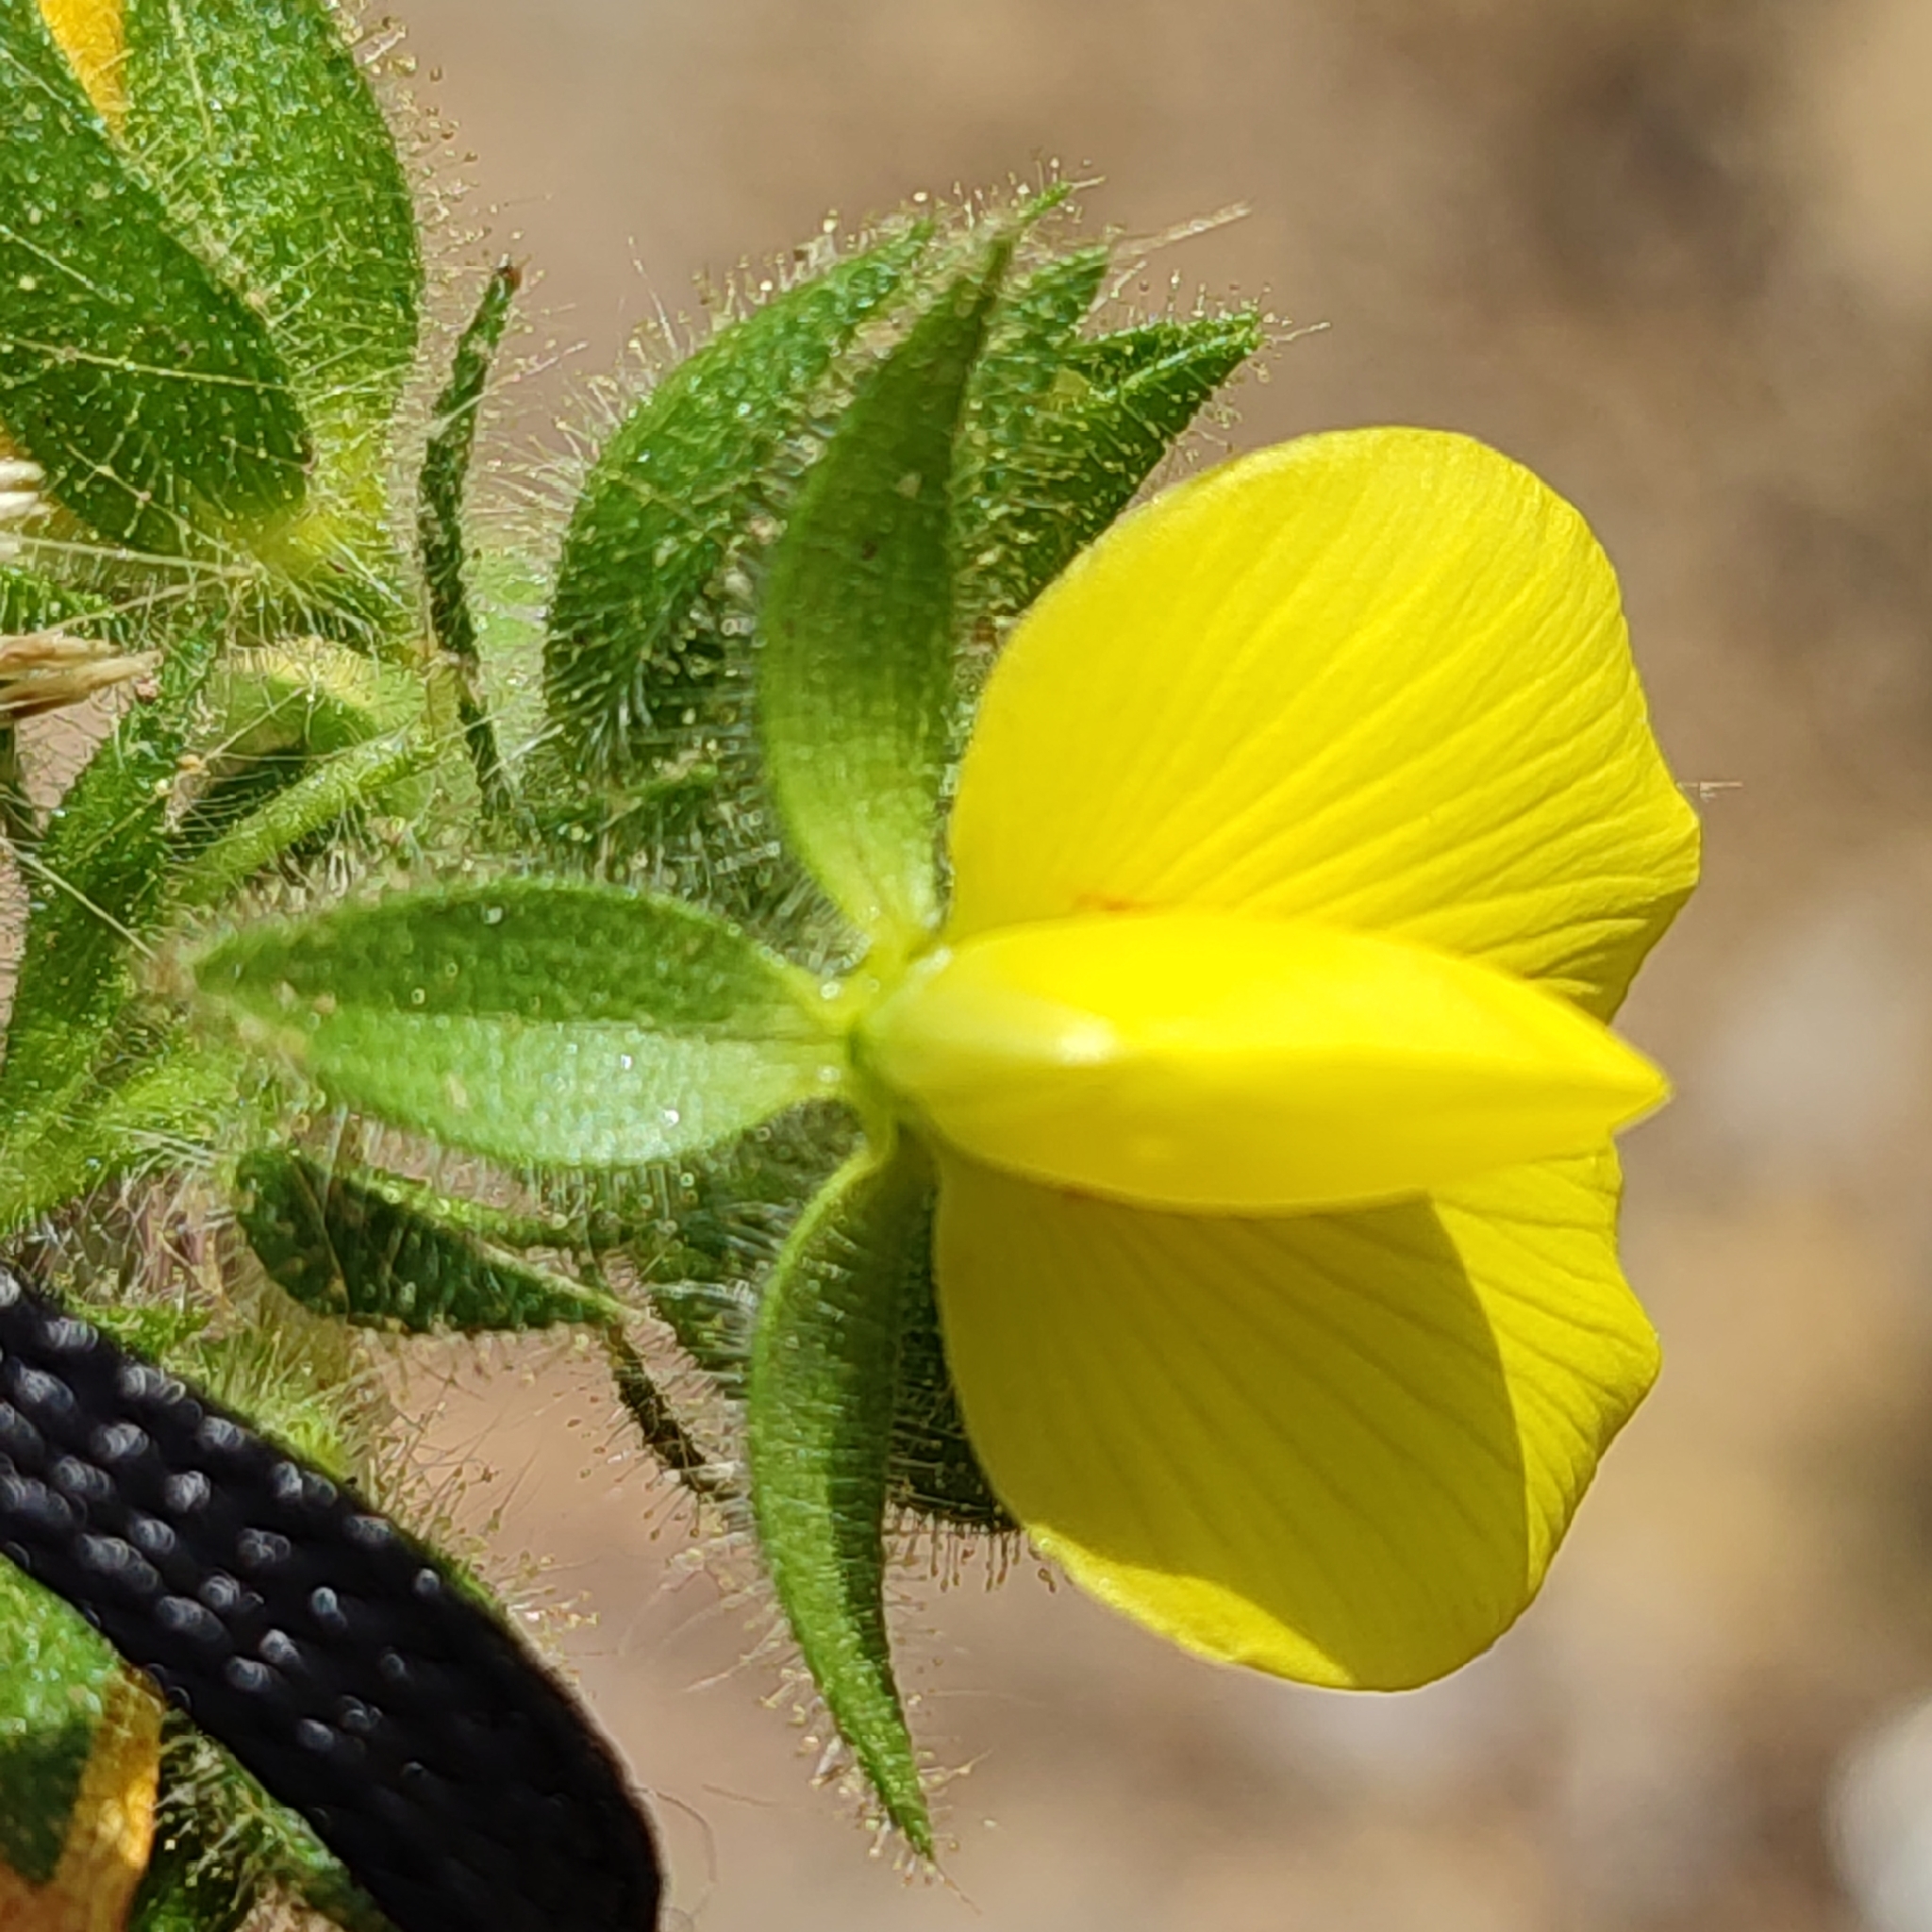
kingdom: Plantae
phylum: Tracheophyta
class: Magnoliopsida
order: Fabales
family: Fabaceae
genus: Ononis
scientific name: Ononis pubescens
